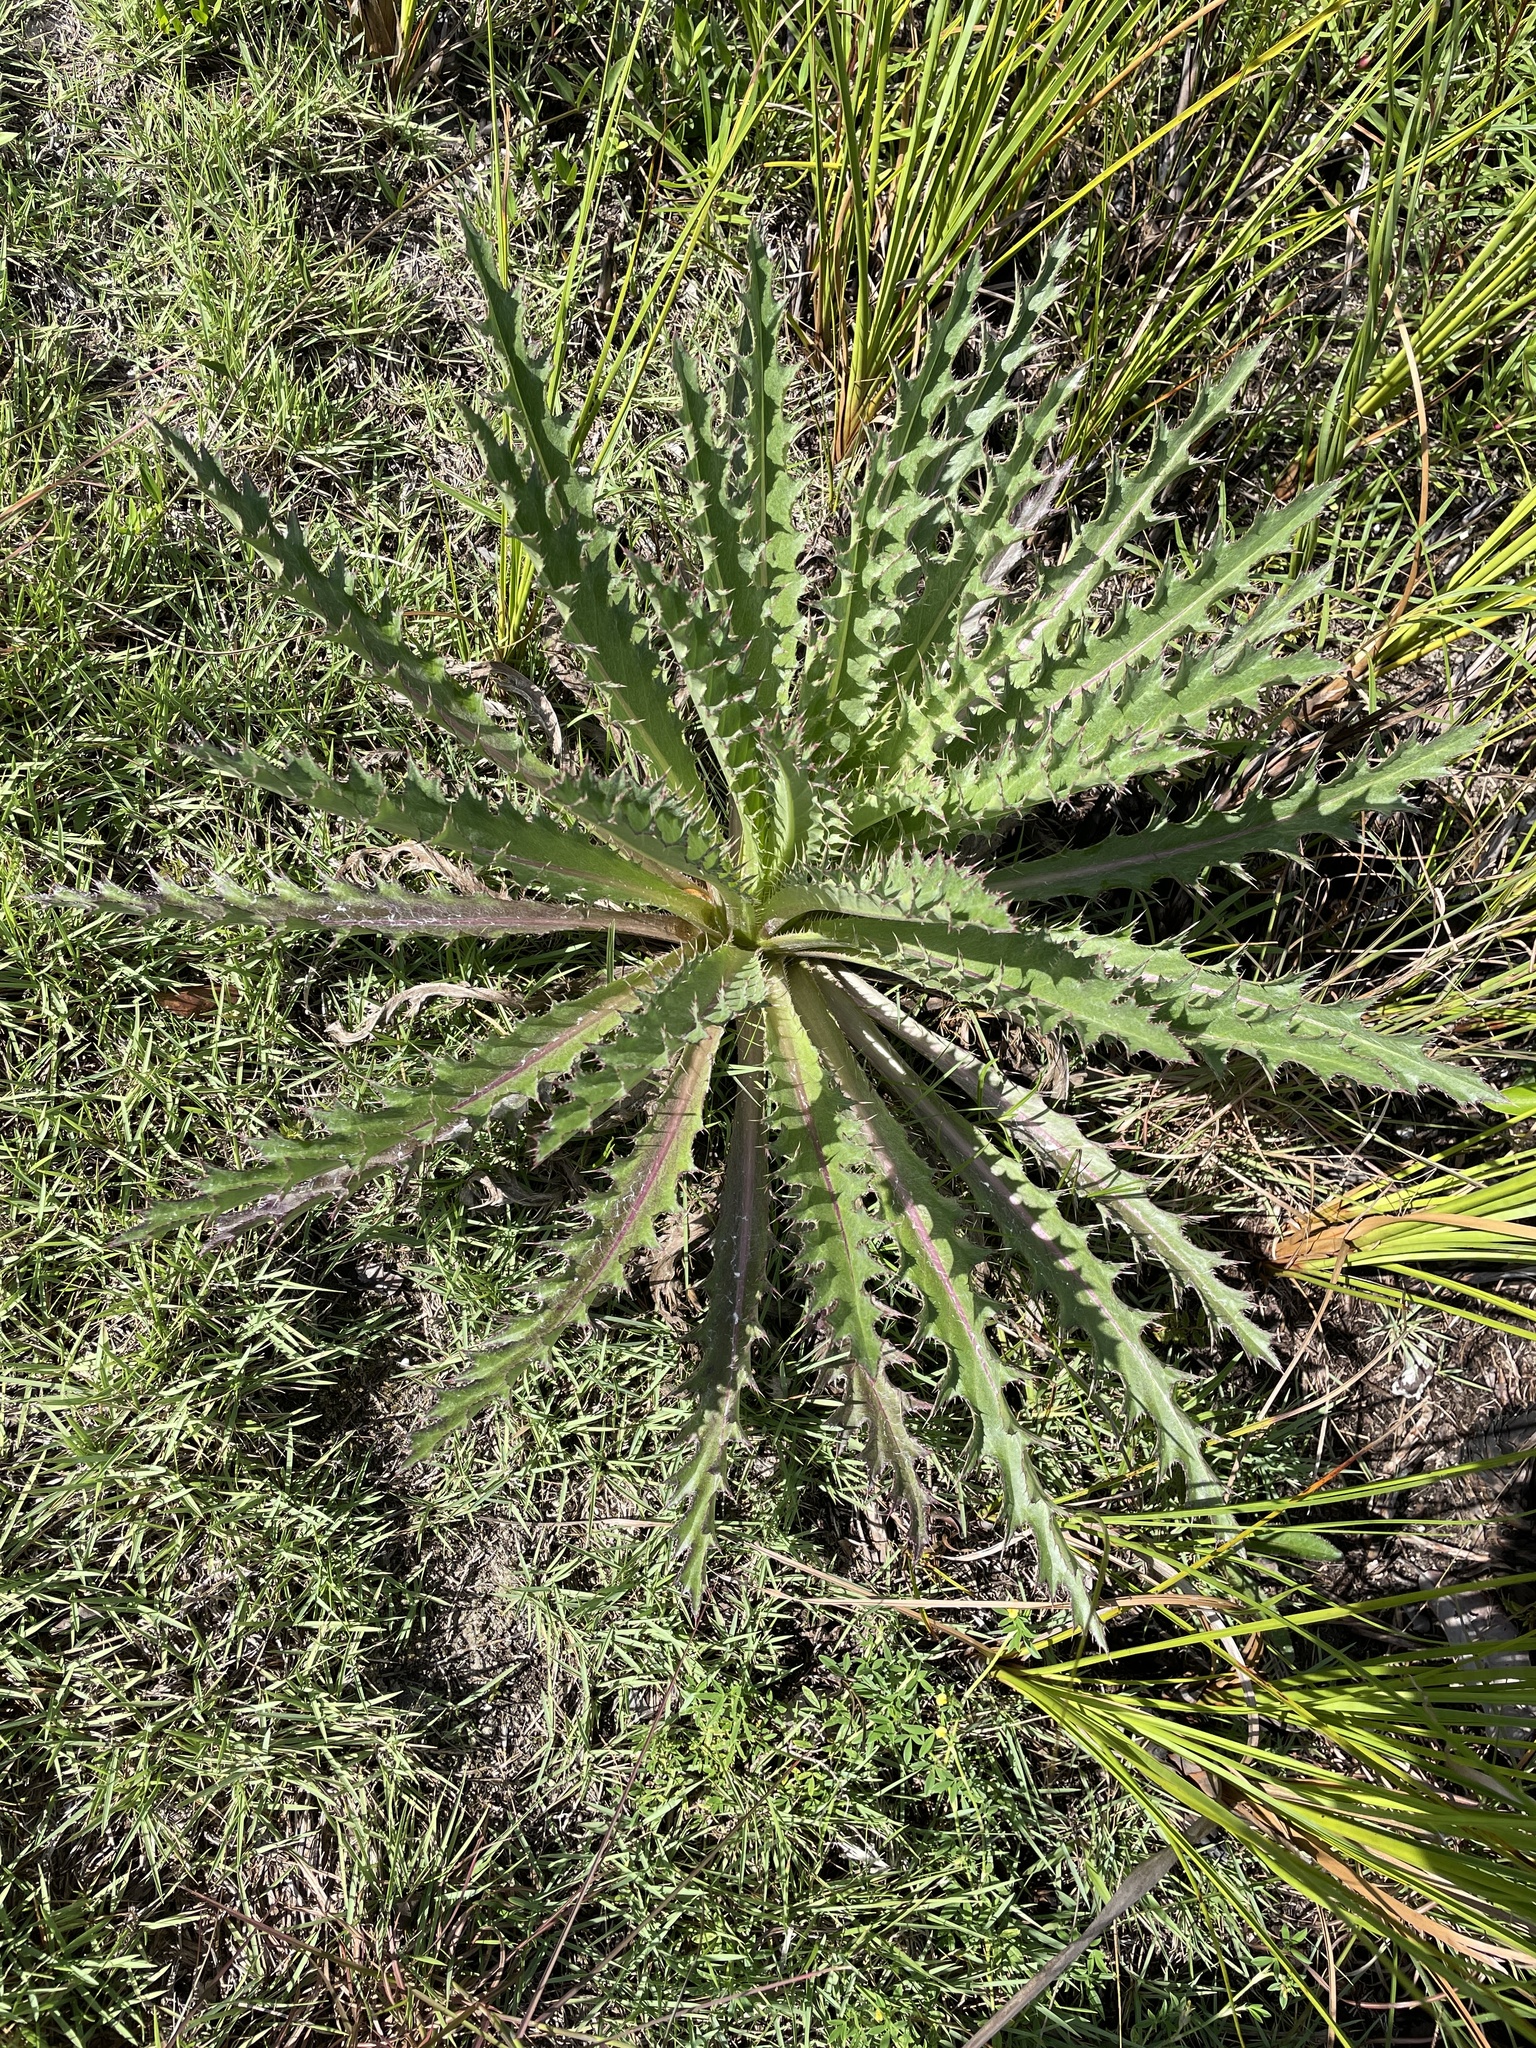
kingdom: Plantae
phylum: Tracheophyta
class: Magnoliopsida
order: Asterales
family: Asteraceae
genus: Cirsium
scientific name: Cirsium horridulum
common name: Bristly thistle
